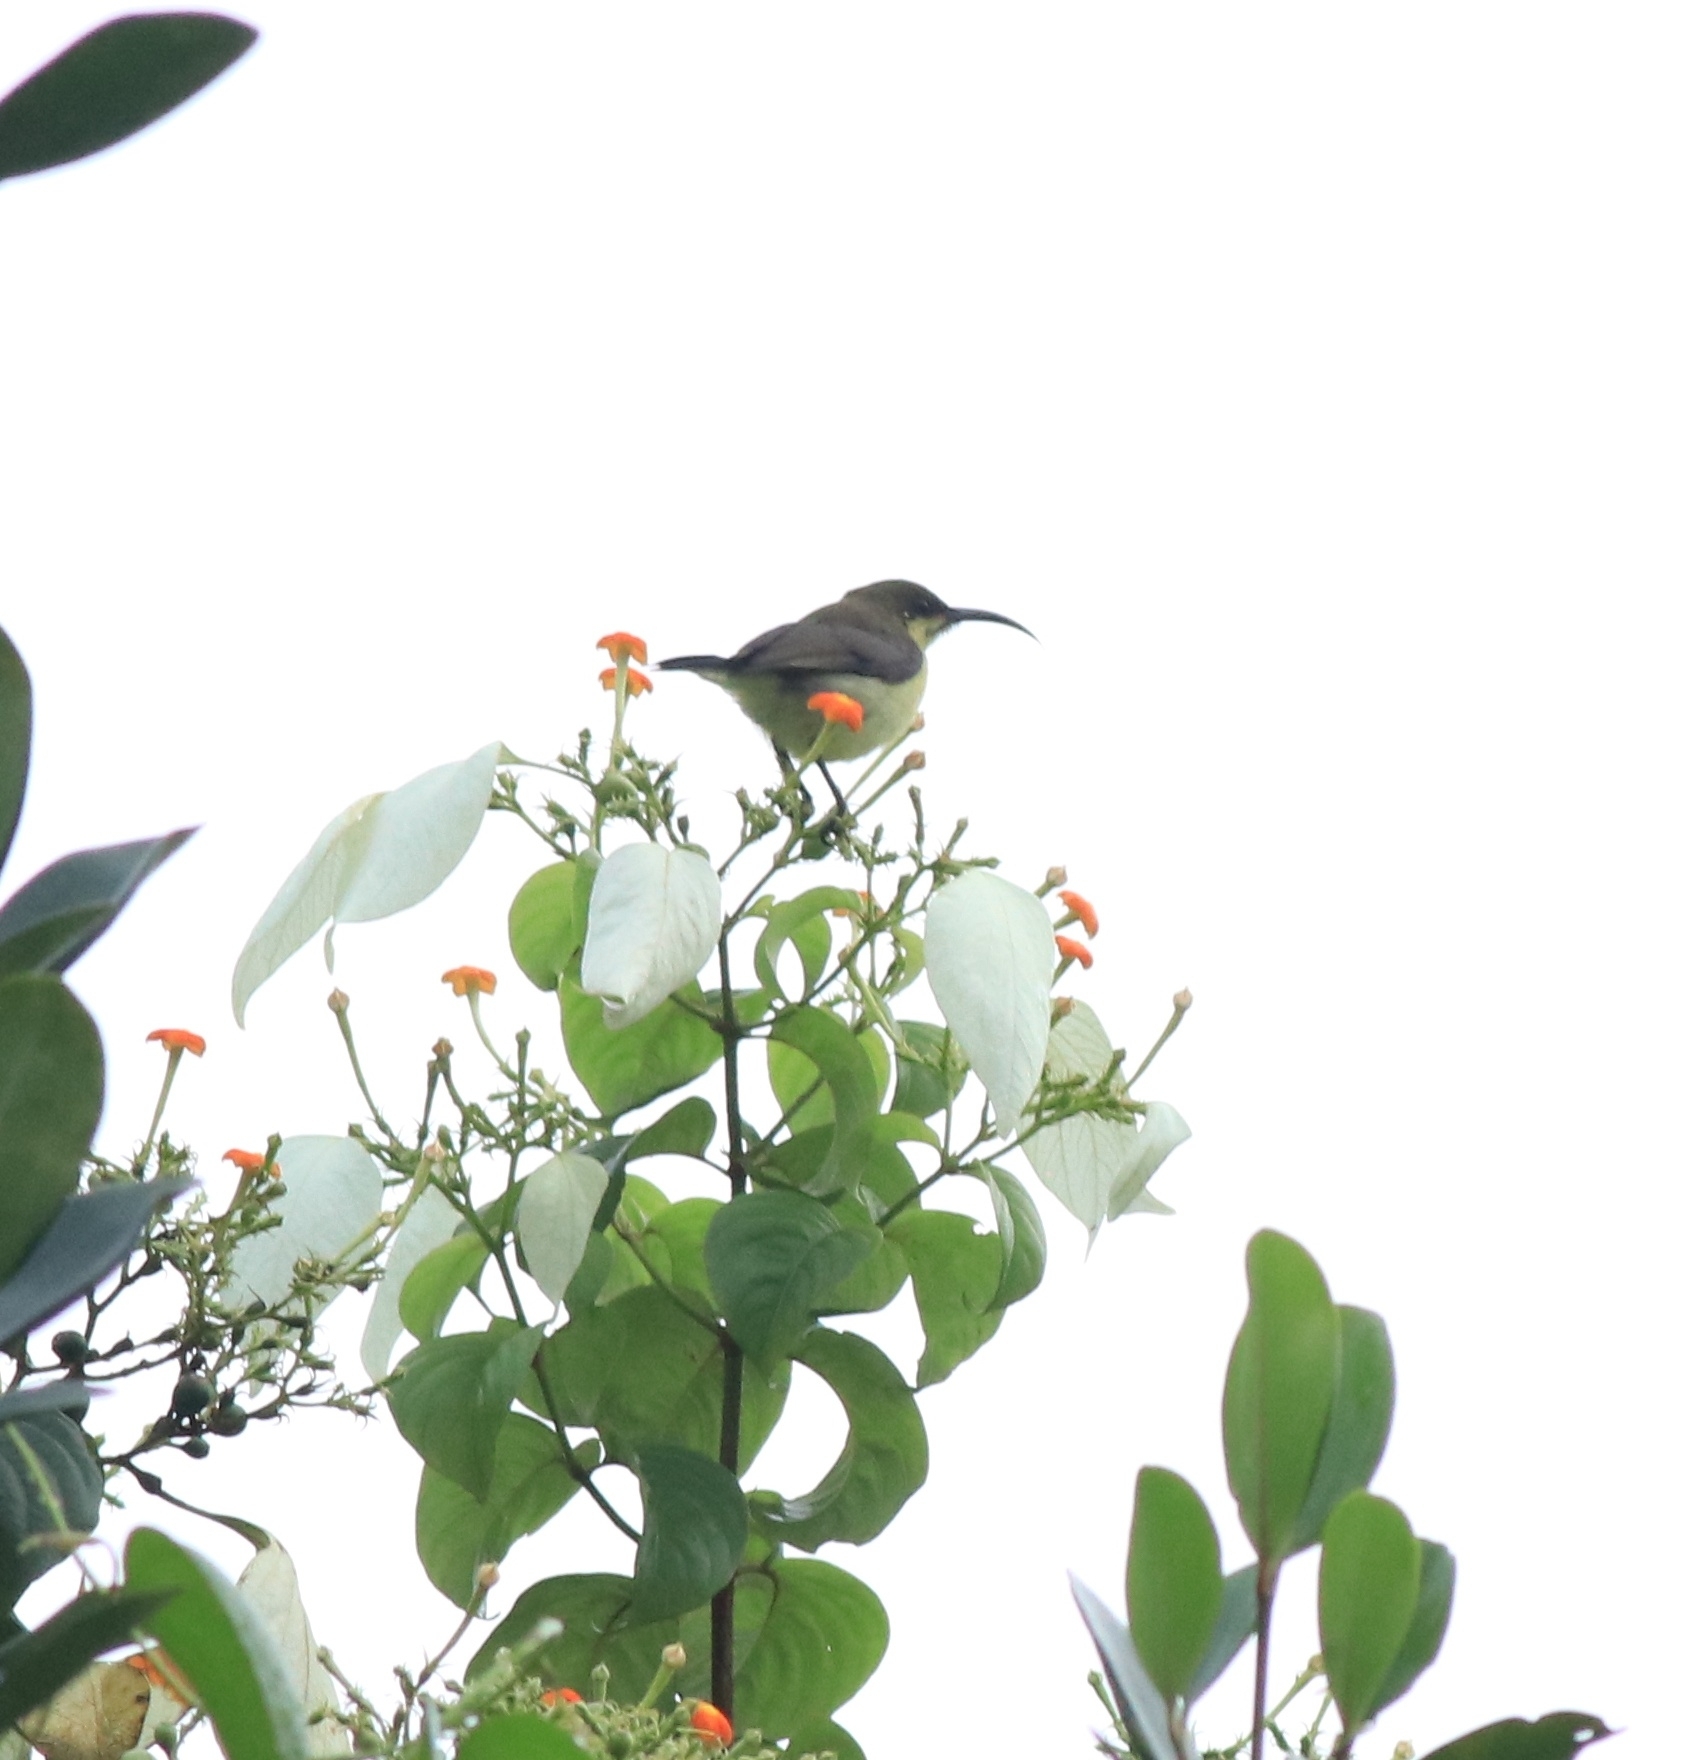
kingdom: Animalia
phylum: Chordata
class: Aves
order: Passeriformes
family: Nectariniidae
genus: Cinnyris
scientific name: Cinnyris lotenius
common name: Loten's sunbird
